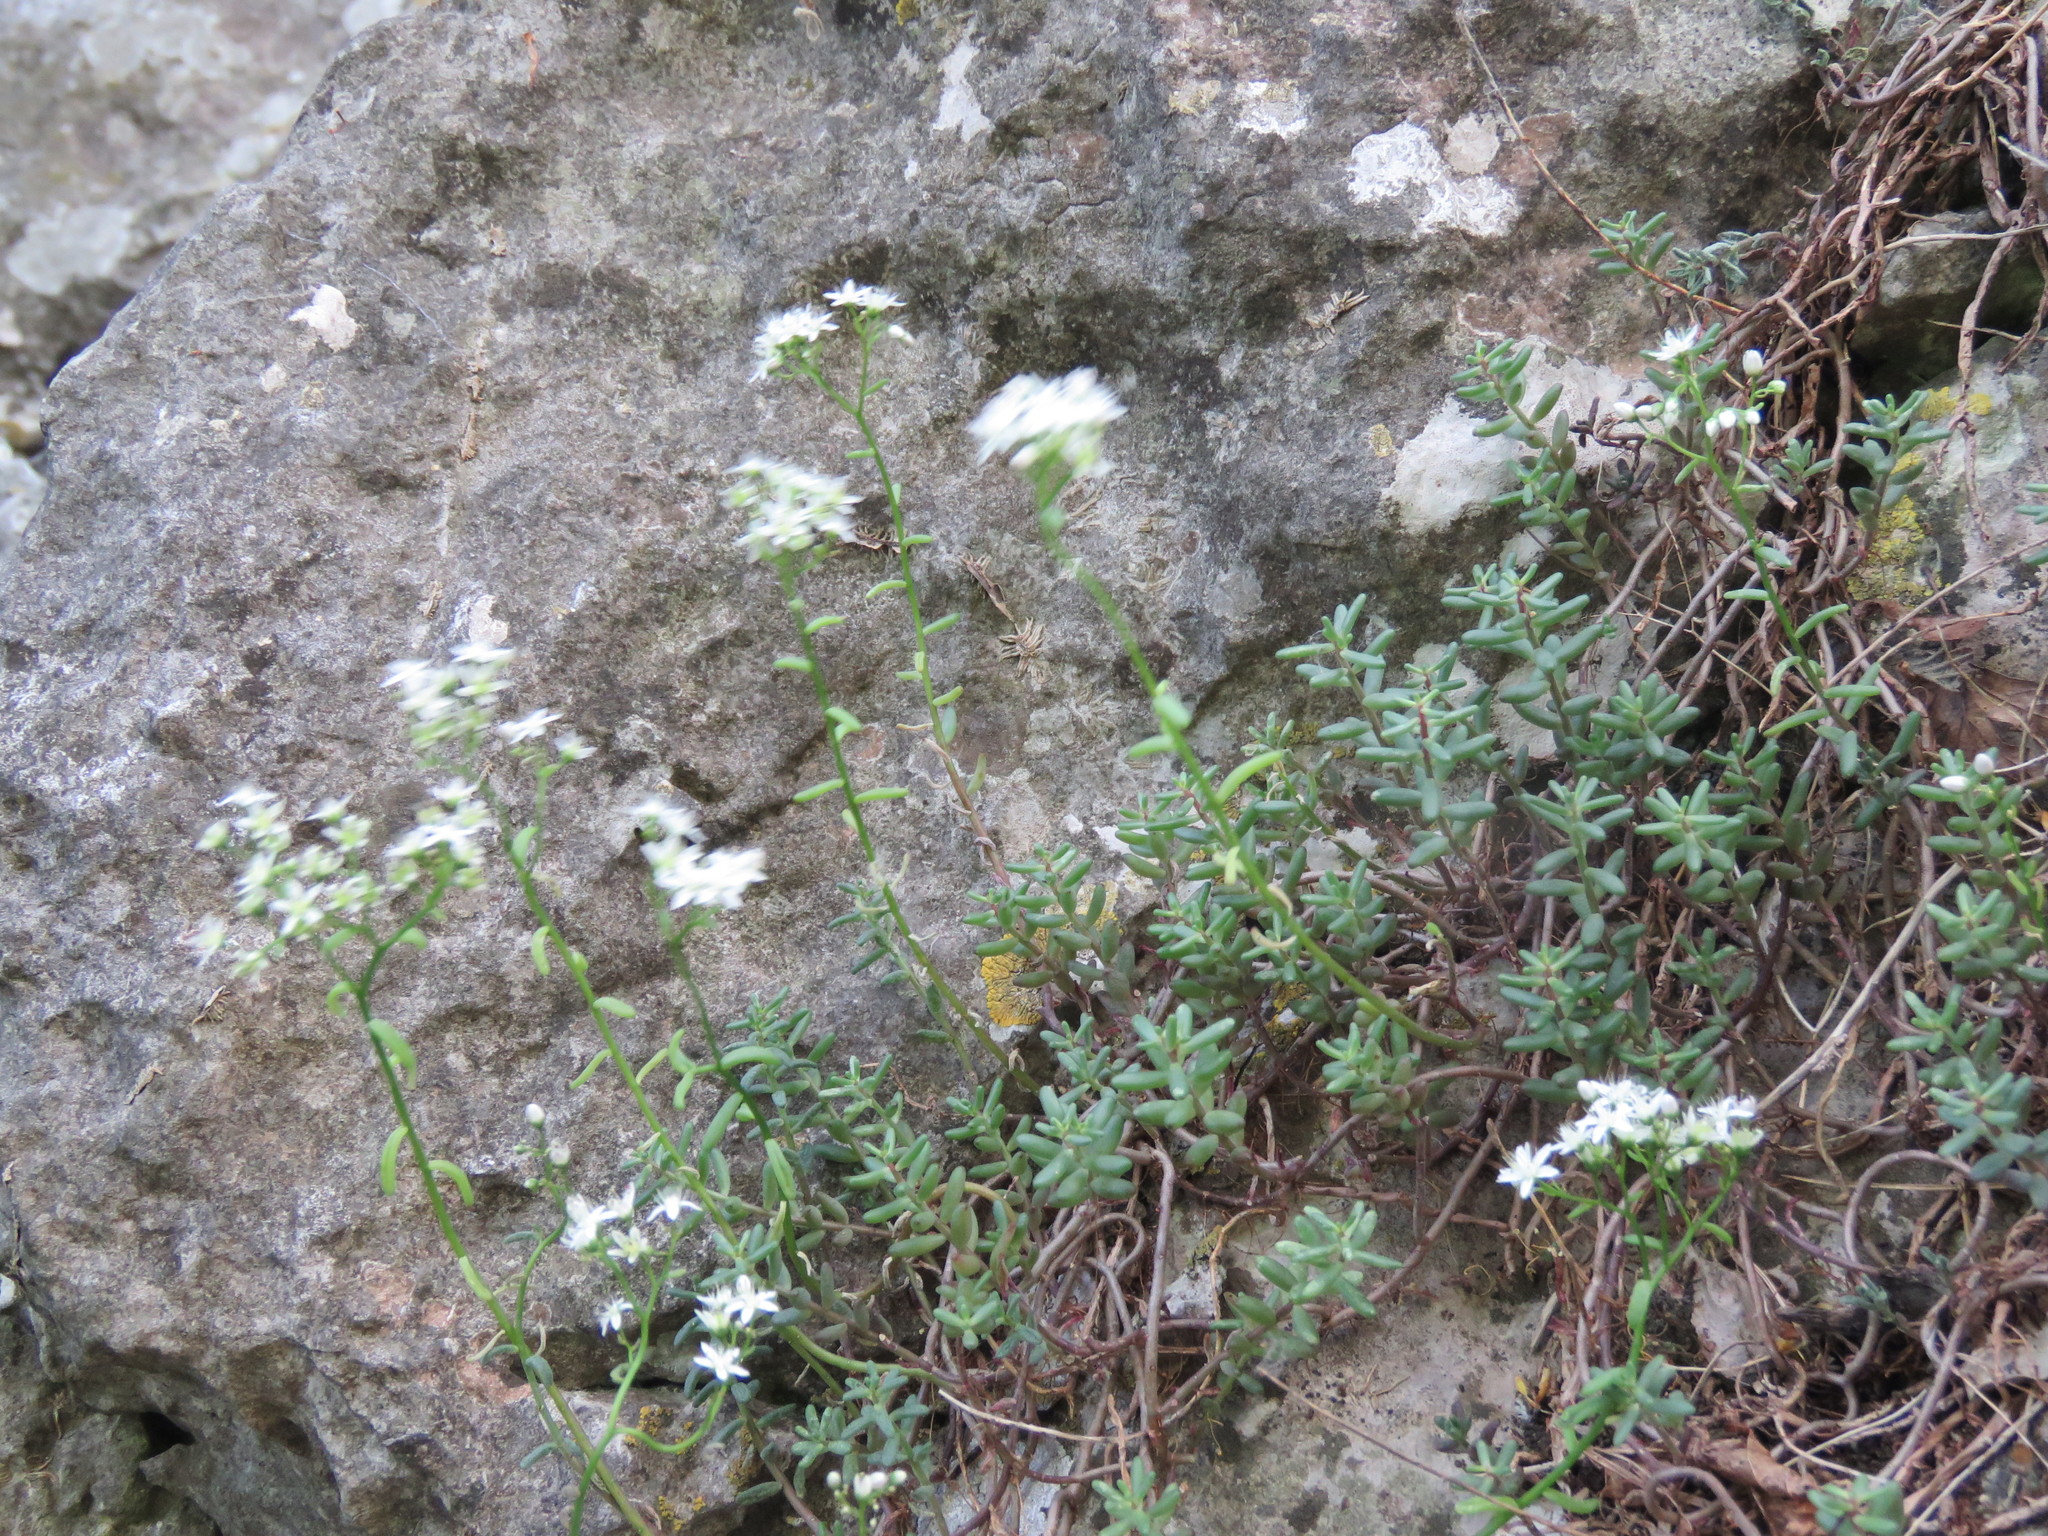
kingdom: Plantae
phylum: Tracheophyta
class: Magnoliopsida
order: Saxifragales
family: Crassulaceae
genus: Sedum
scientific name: Sedum album
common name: White stonecrop
